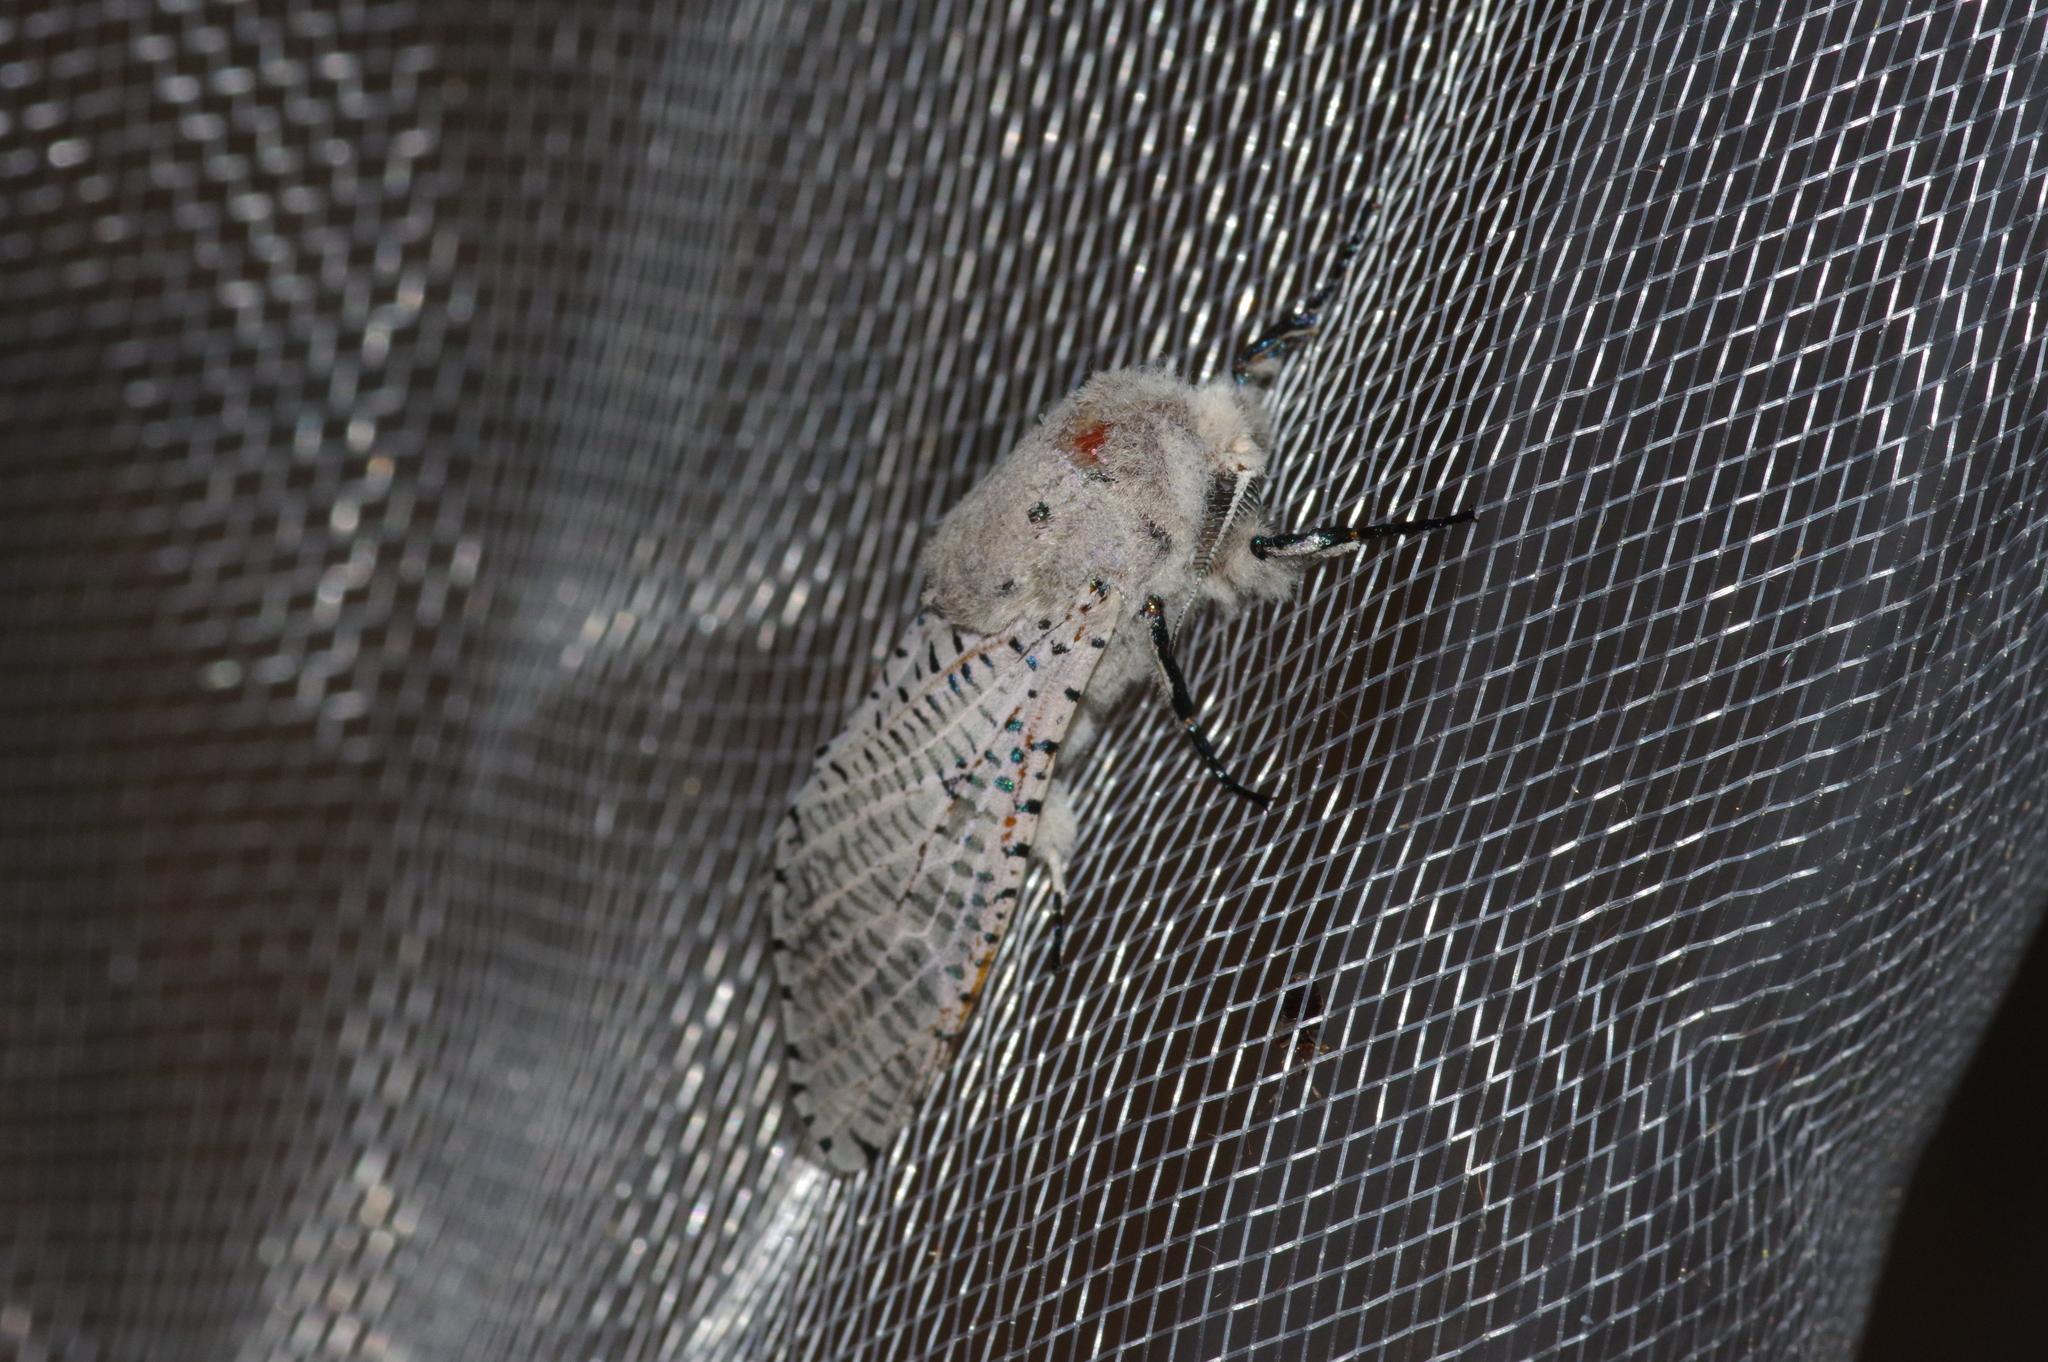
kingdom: Animalia
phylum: Arthropoda
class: Insecta
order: Lepidoptera
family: Cossidae
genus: Orientozeuzera
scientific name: Orientozeuzera caudata
